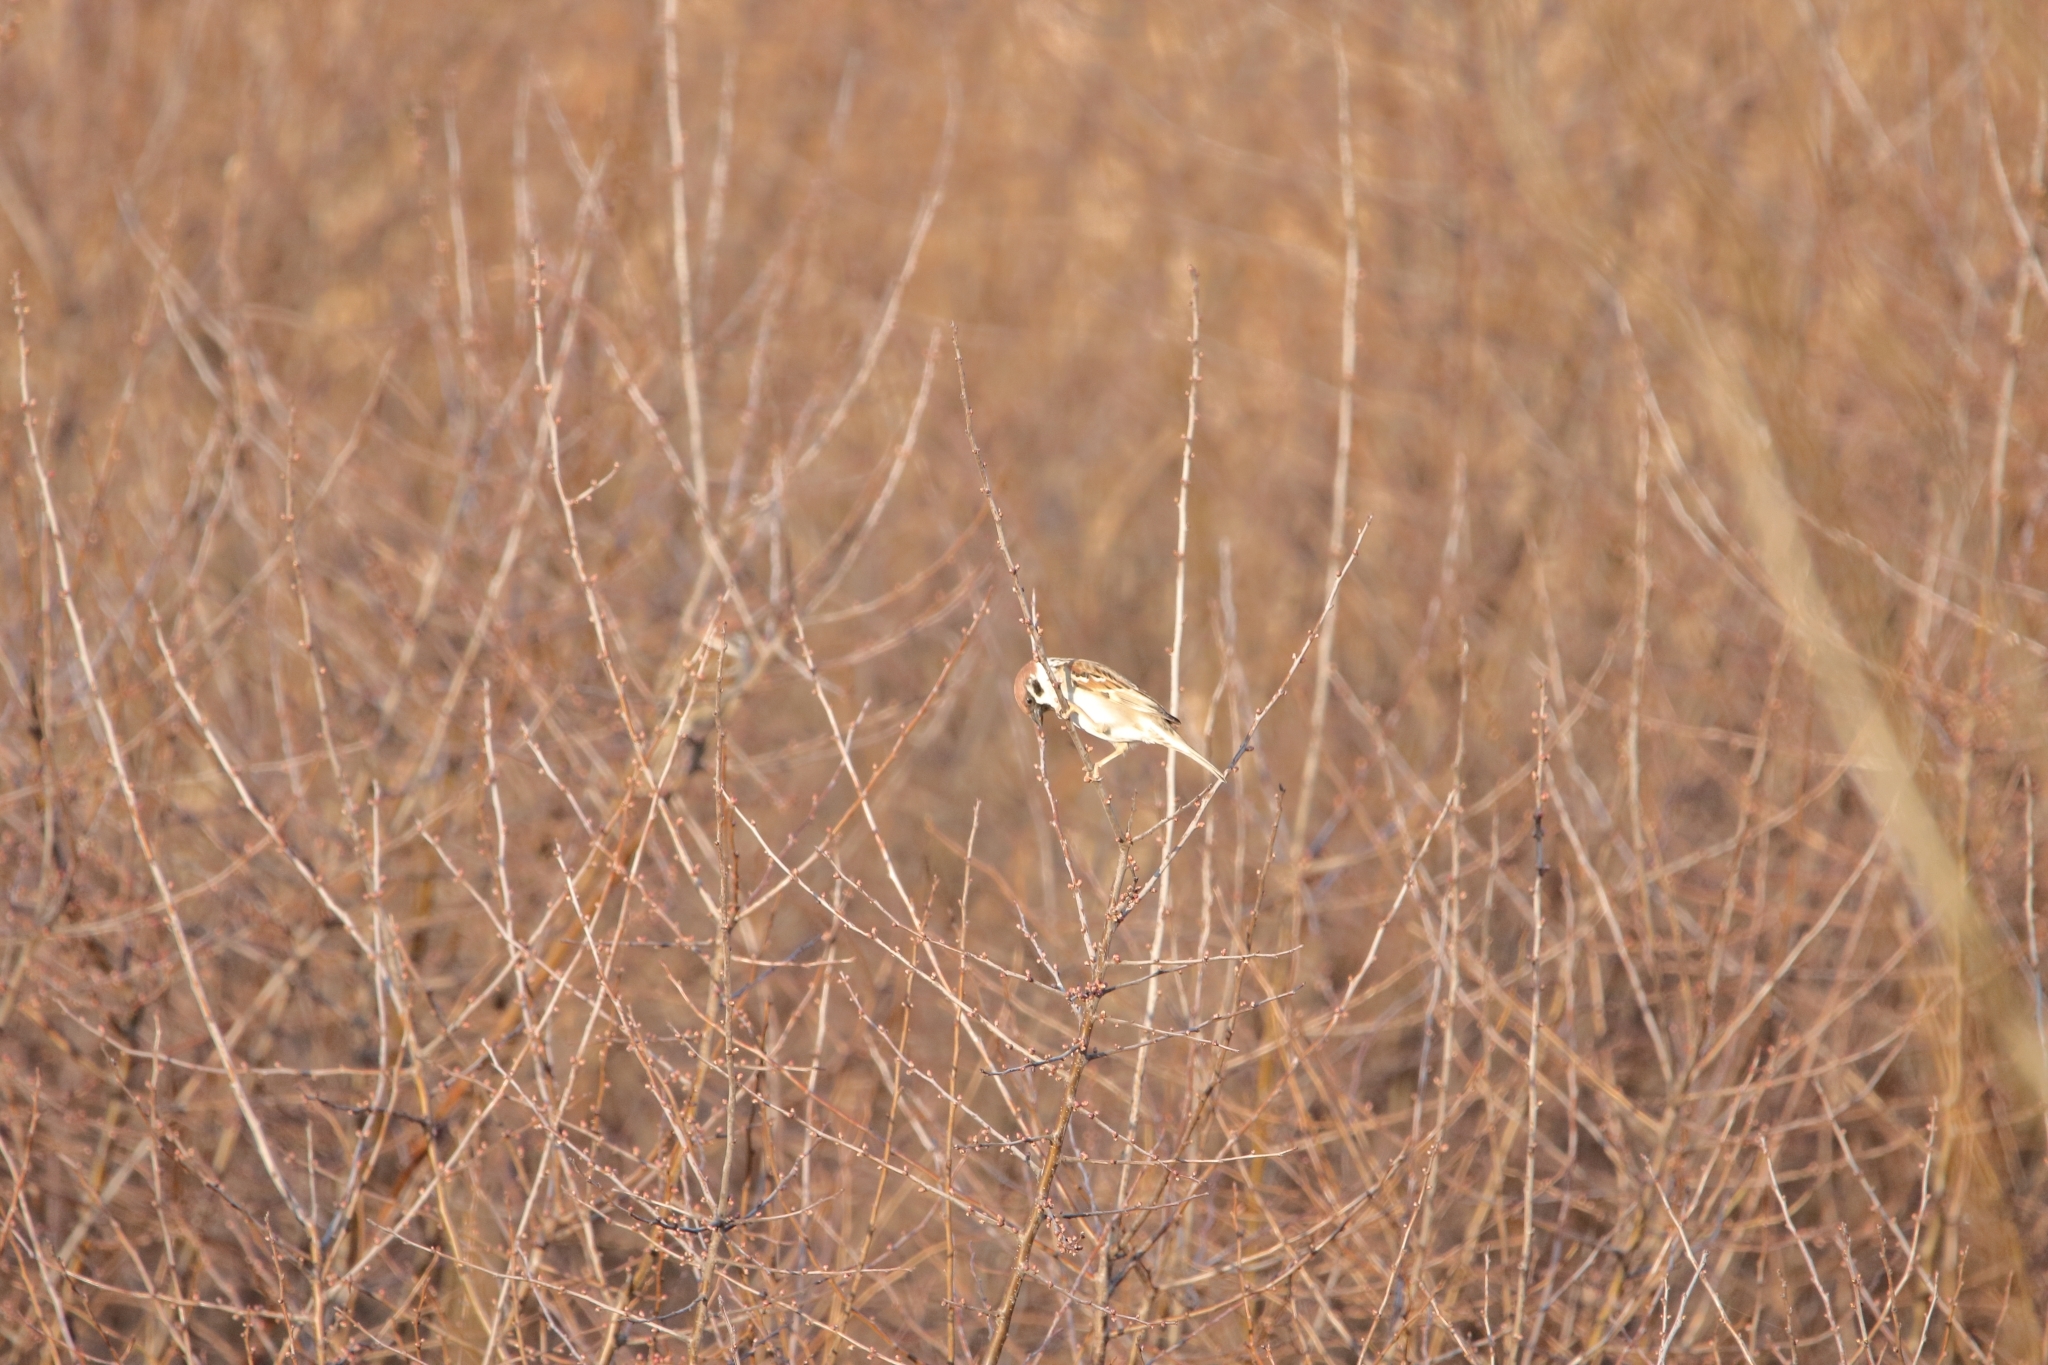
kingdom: Animalia
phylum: Chordata
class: Aves
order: Passeriformes
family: Passeridae
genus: Passer
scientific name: Passer montanus
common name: Eurasian tree sparrow
